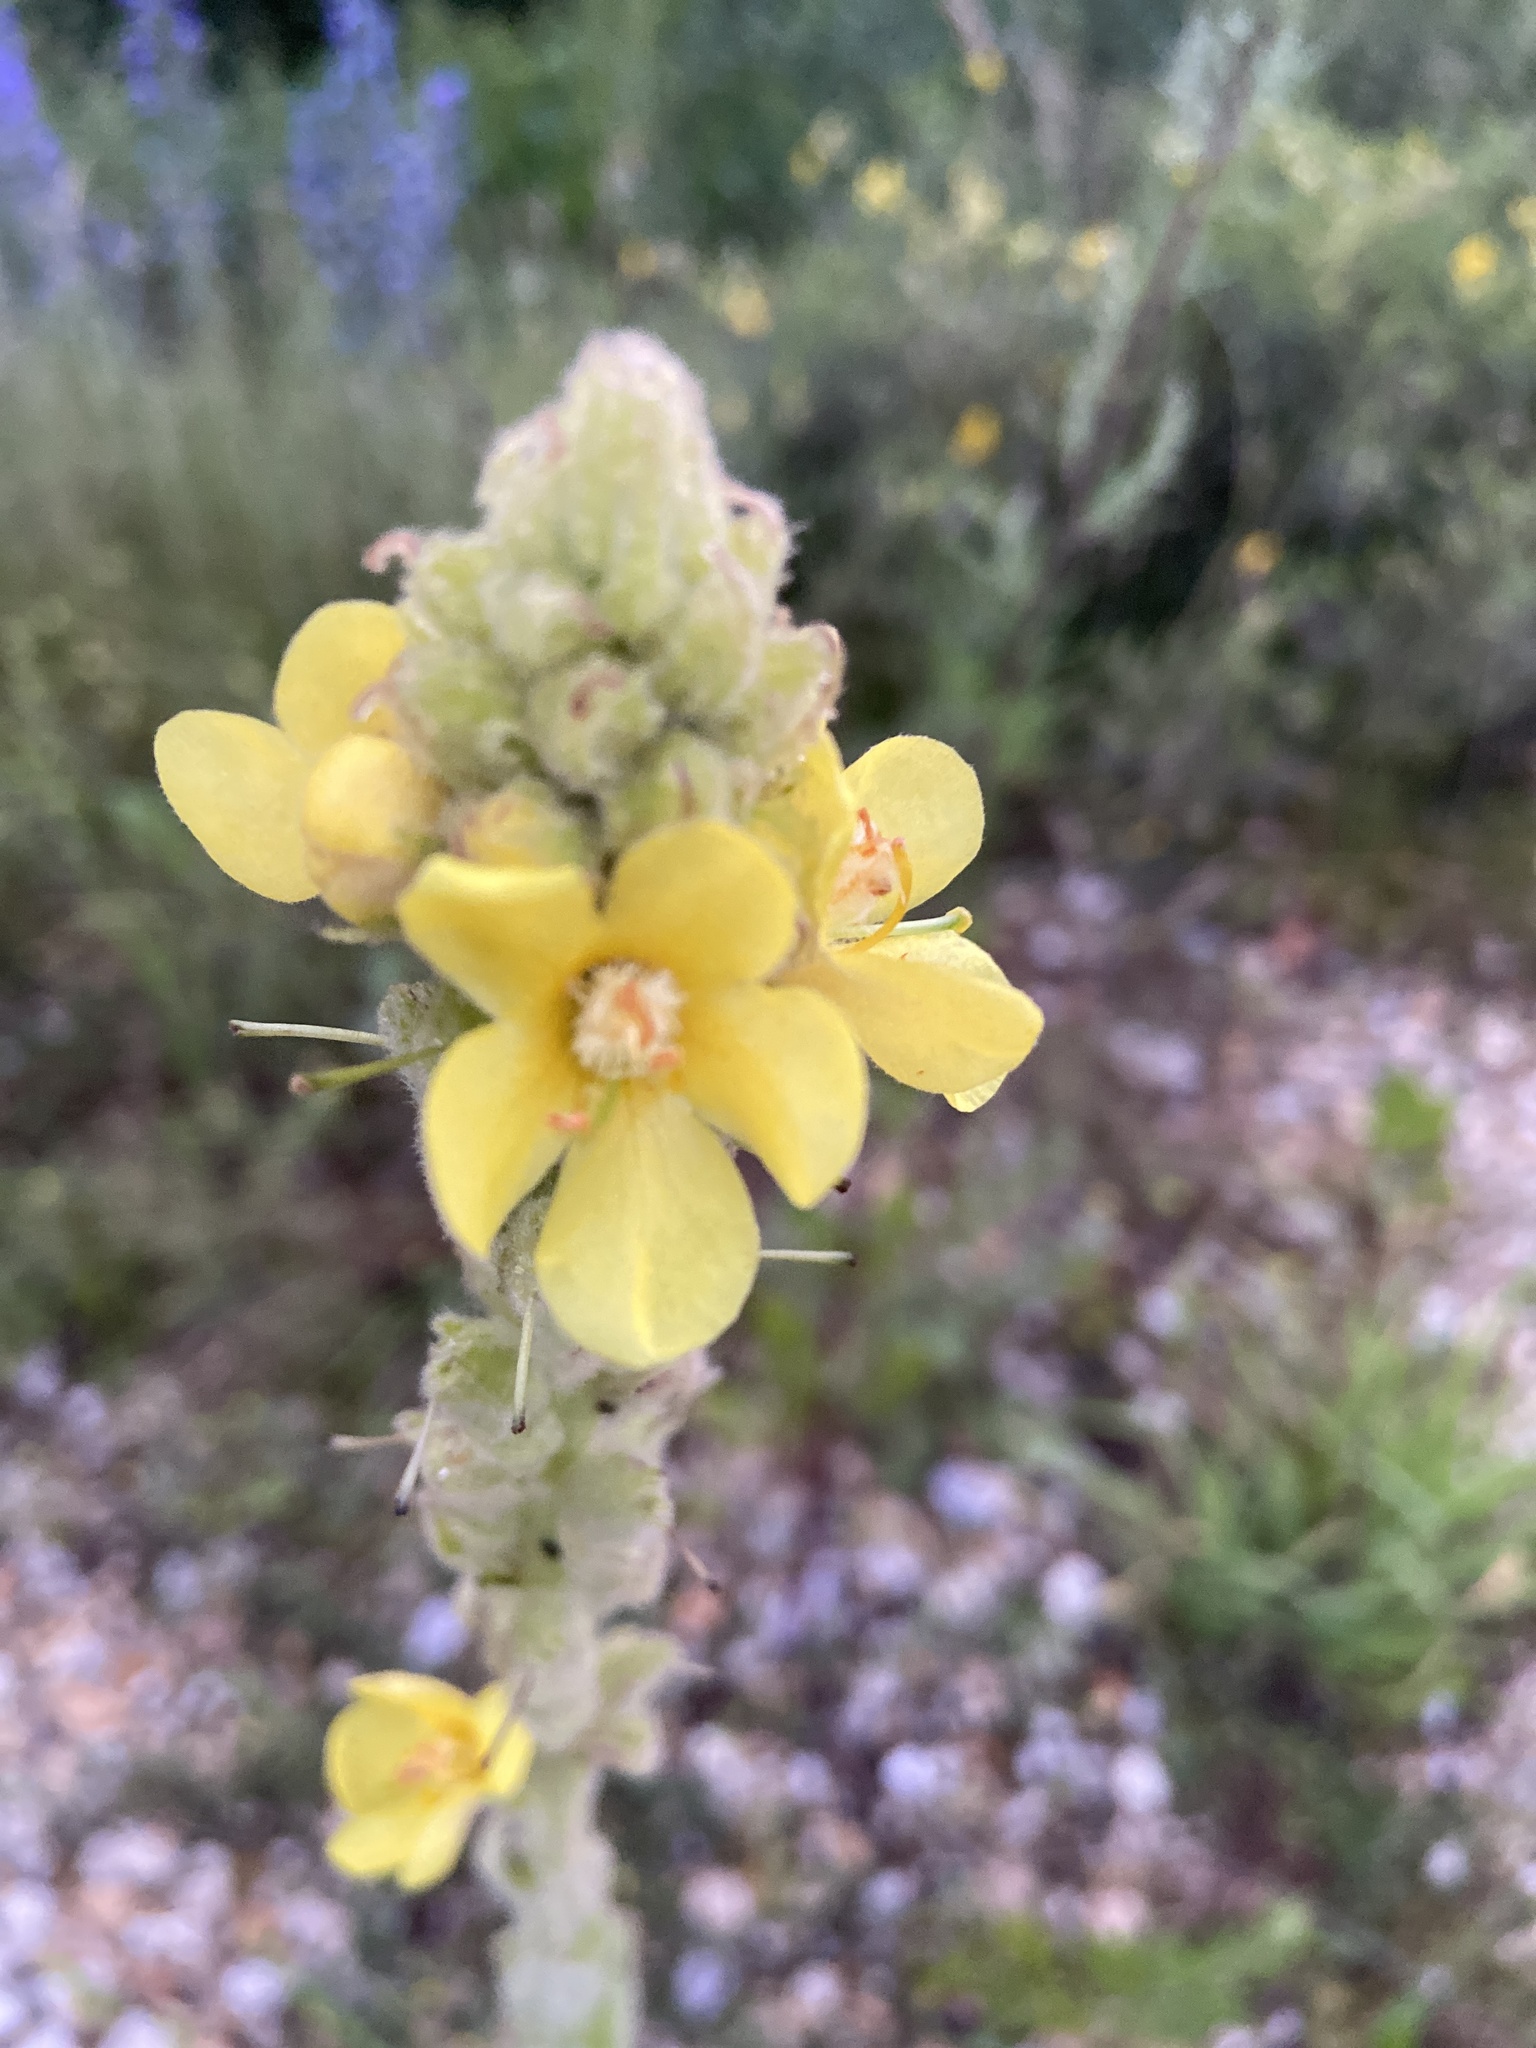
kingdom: Plantae
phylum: Tracheophyta
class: Magnoliopsida
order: Lamiales
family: Scrophulariaceae
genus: Verbascum
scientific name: Verbascum thapsus
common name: Common mullein
